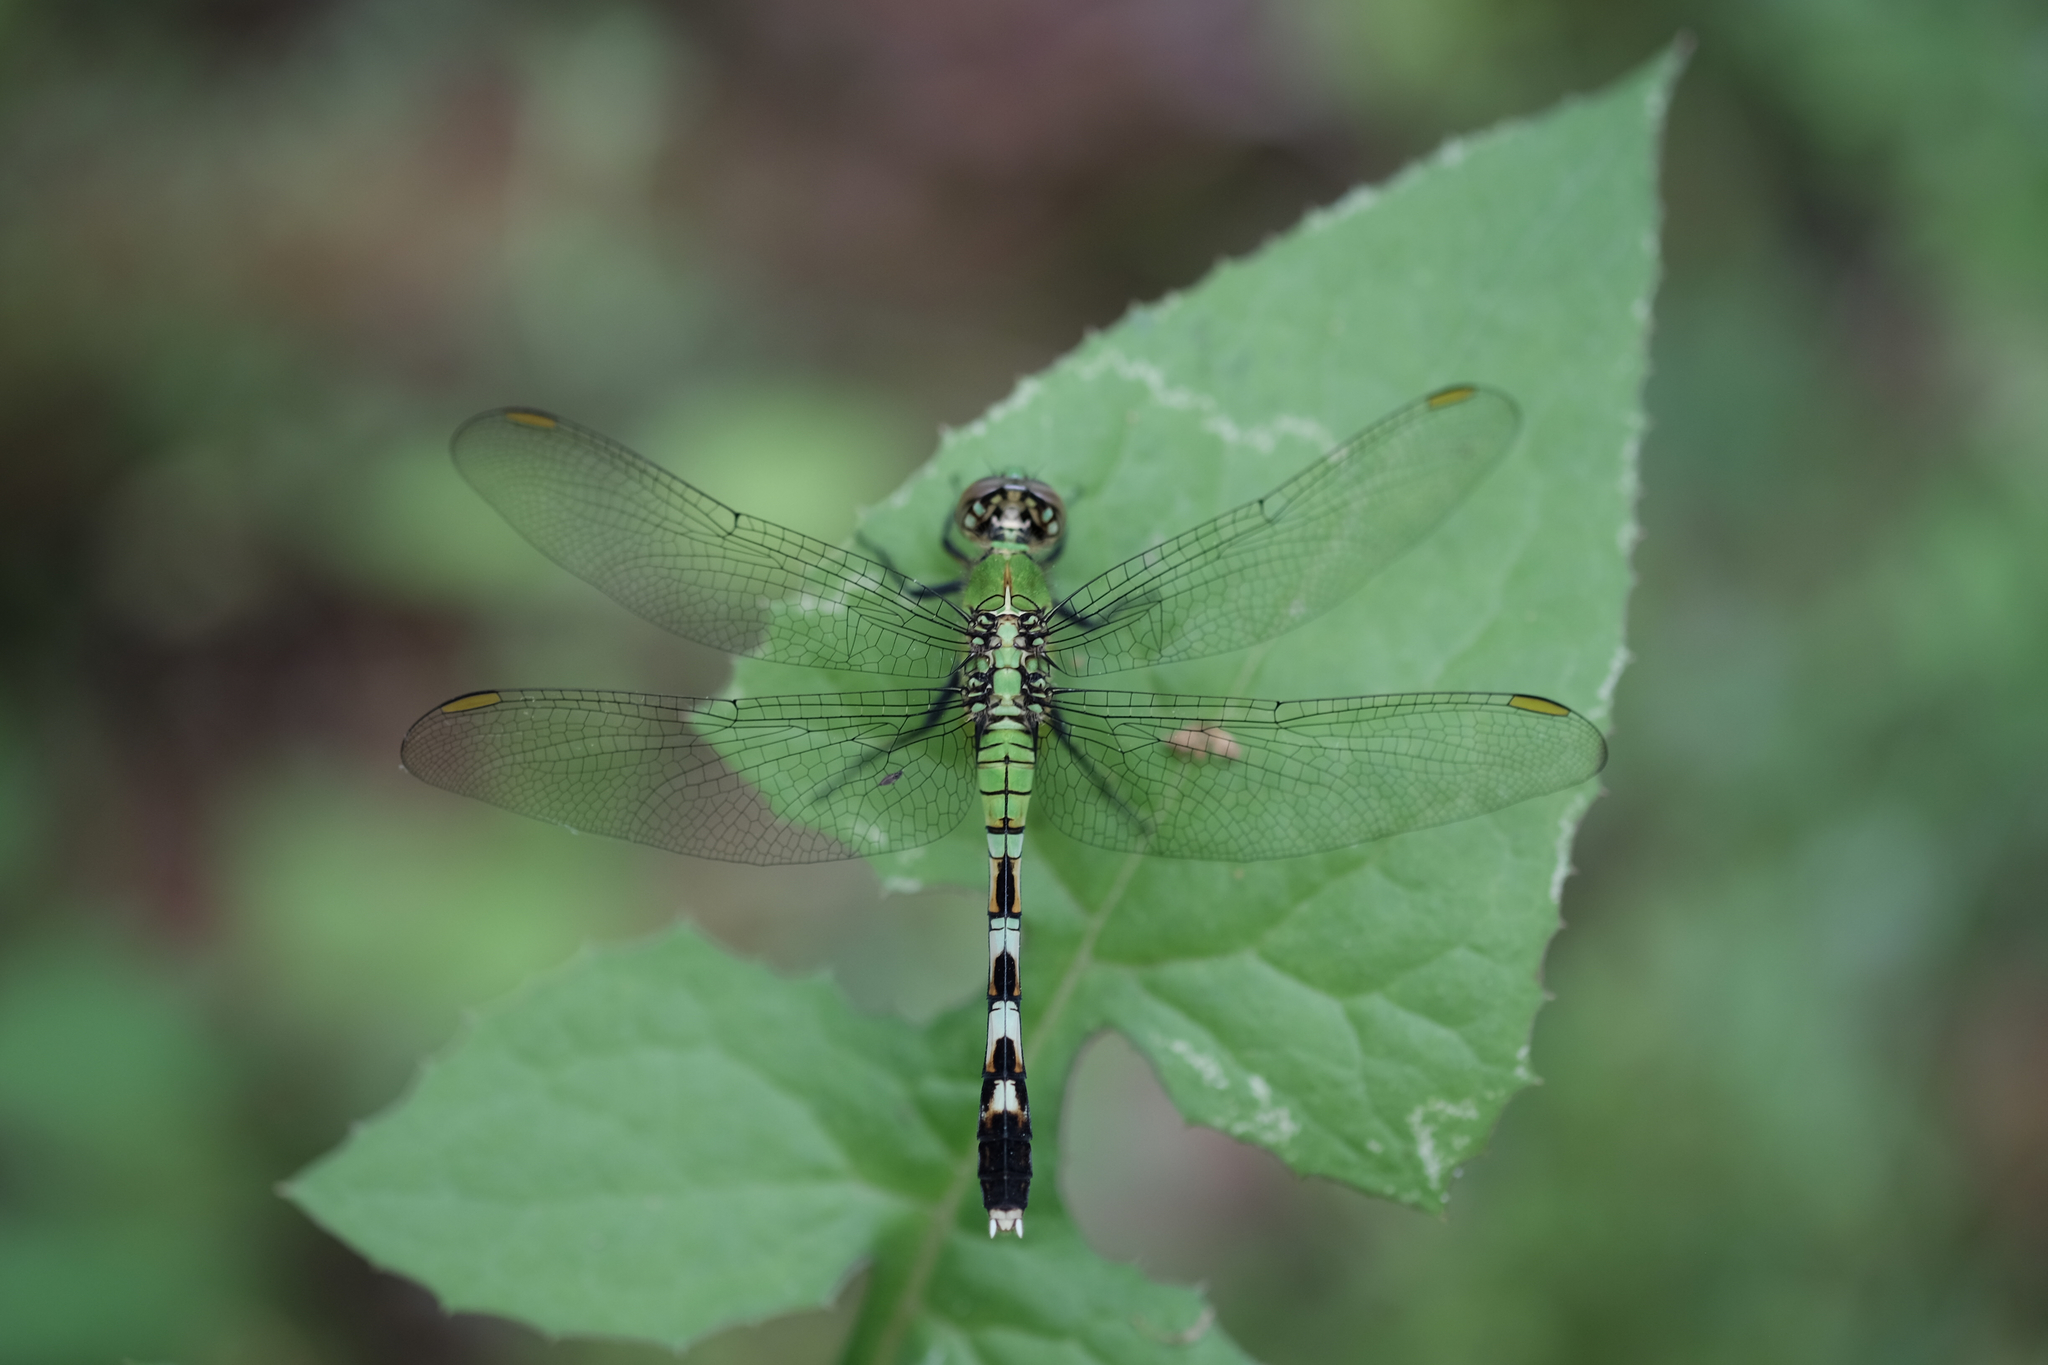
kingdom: Animalia
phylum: Arthropoda
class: Insecta
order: Odonata
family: Libellulidae
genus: Erythemis
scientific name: Erythemis simplicicollis
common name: Eastern pondhawk
